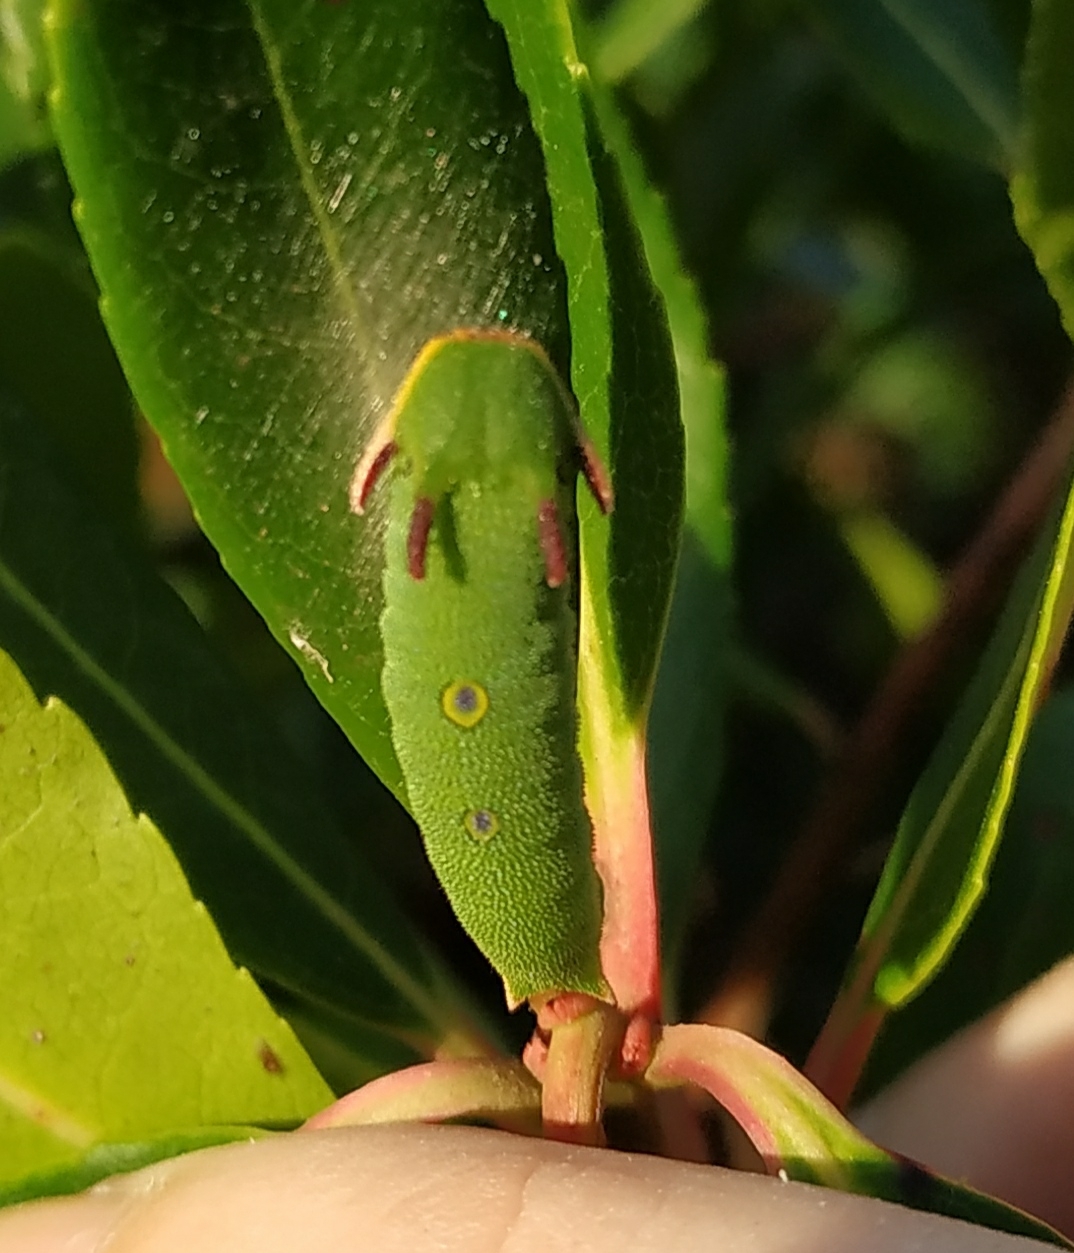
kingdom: Animalia
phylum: Arthropoda
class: Insecta
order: Lepidoptera
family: Nymphalidae
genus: Charaxes
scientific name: Charaxes jasius
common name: Two tailed pasha
